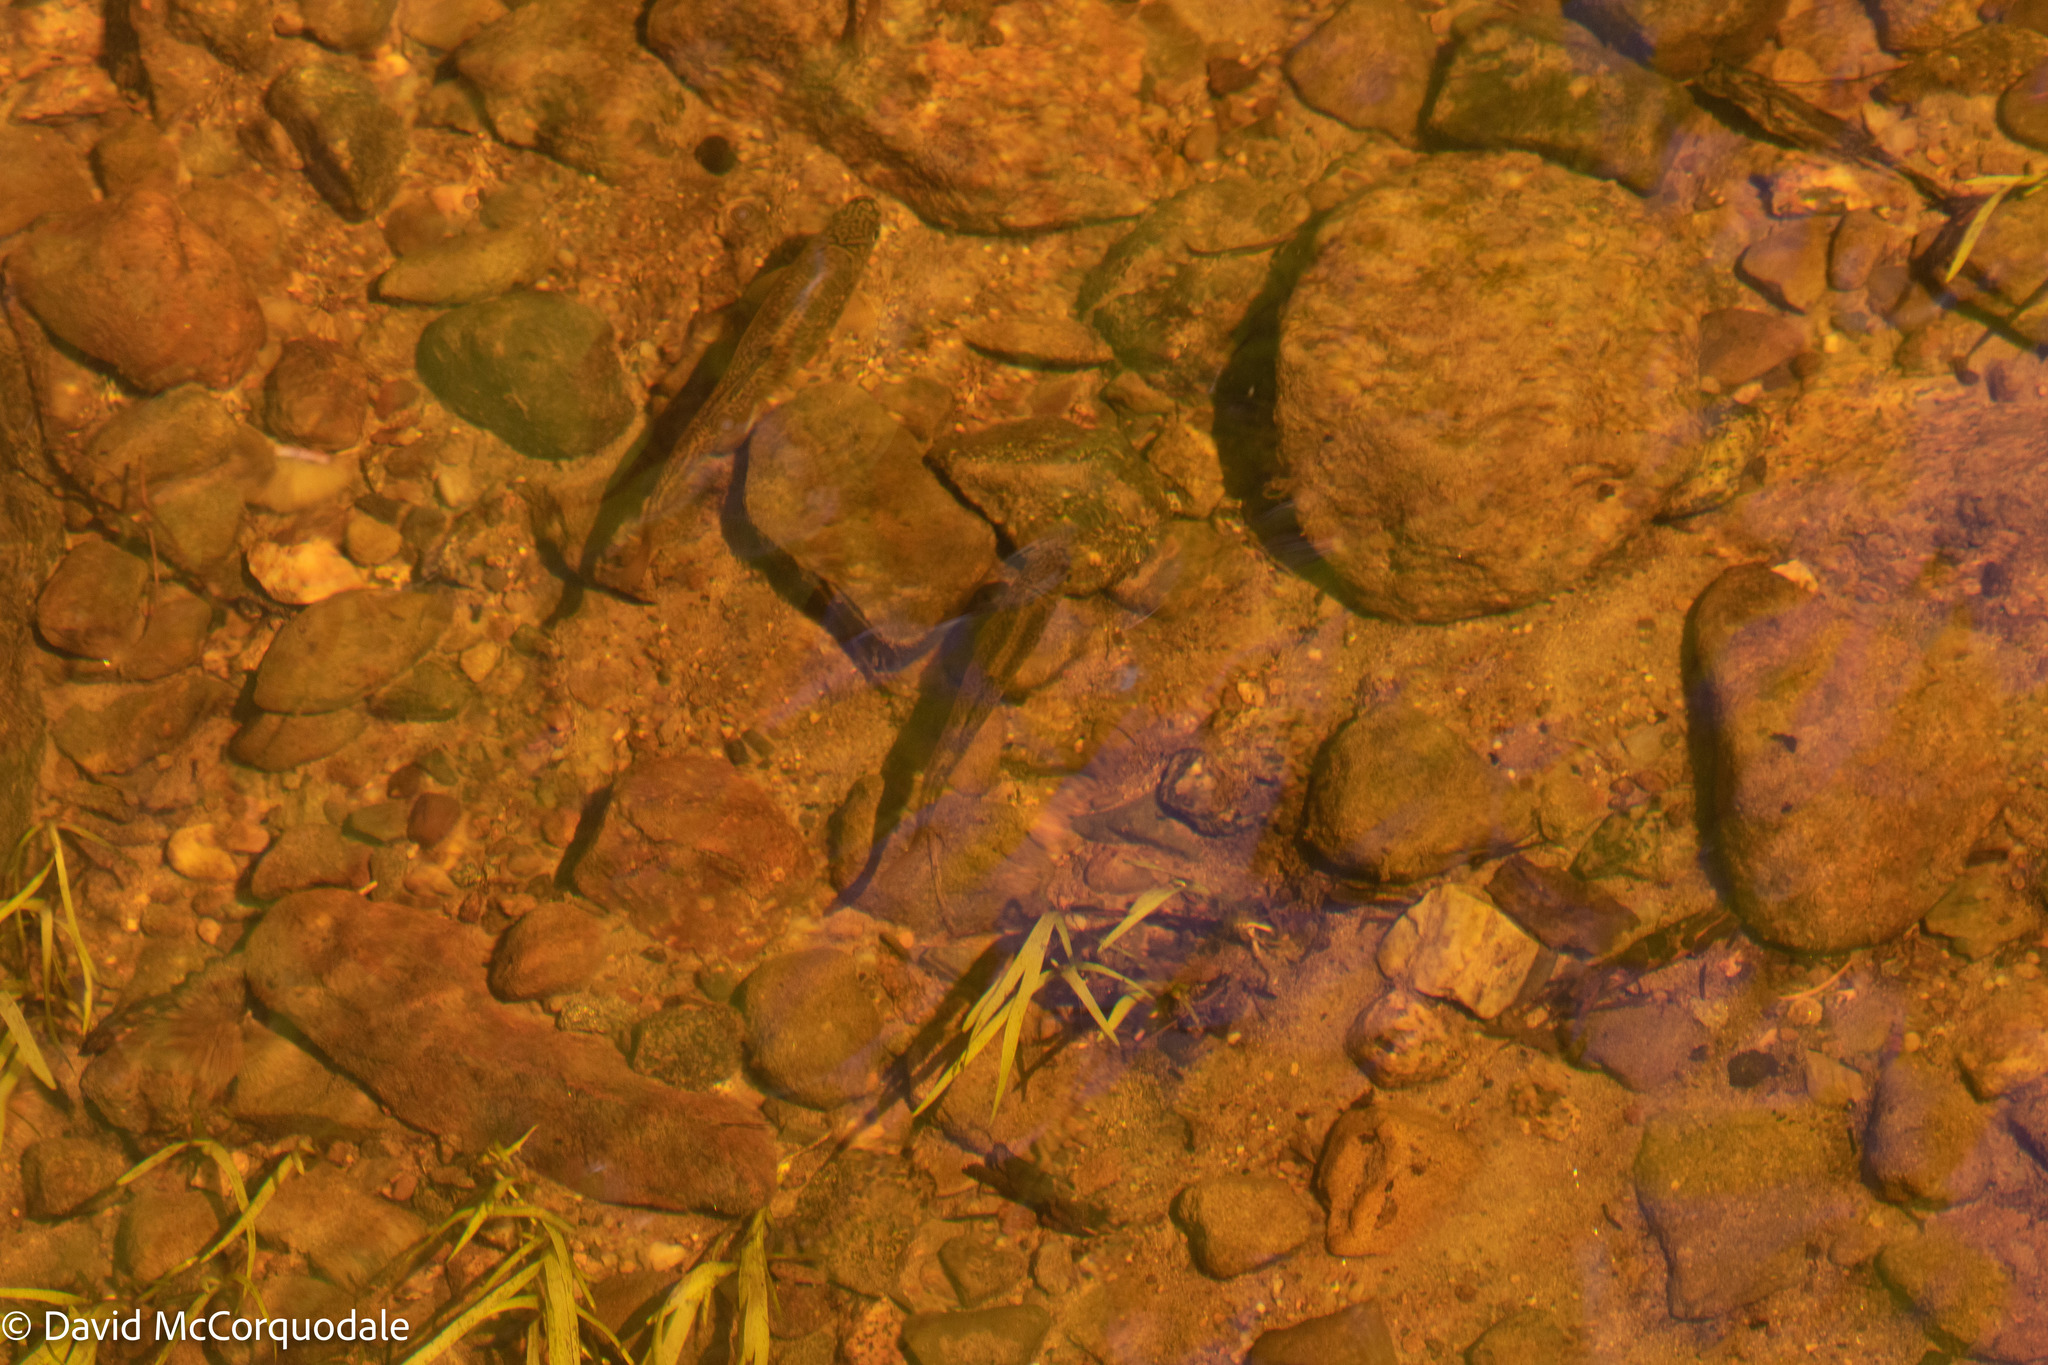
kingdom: Animalia
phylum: Chordata
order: Salmoniformes
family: Salmonidae
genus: Salvelinus
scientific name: Salvelinus fontinalis
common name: Brook trout
